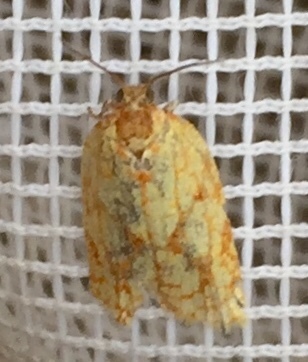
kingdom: Animalia
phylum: Arthropoda
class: Insecta
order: Lepidoptera
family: Tortricidae
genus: Sparganothis
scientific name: Sparganothis sulfureana
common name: Sparganothis fruitworm moth
